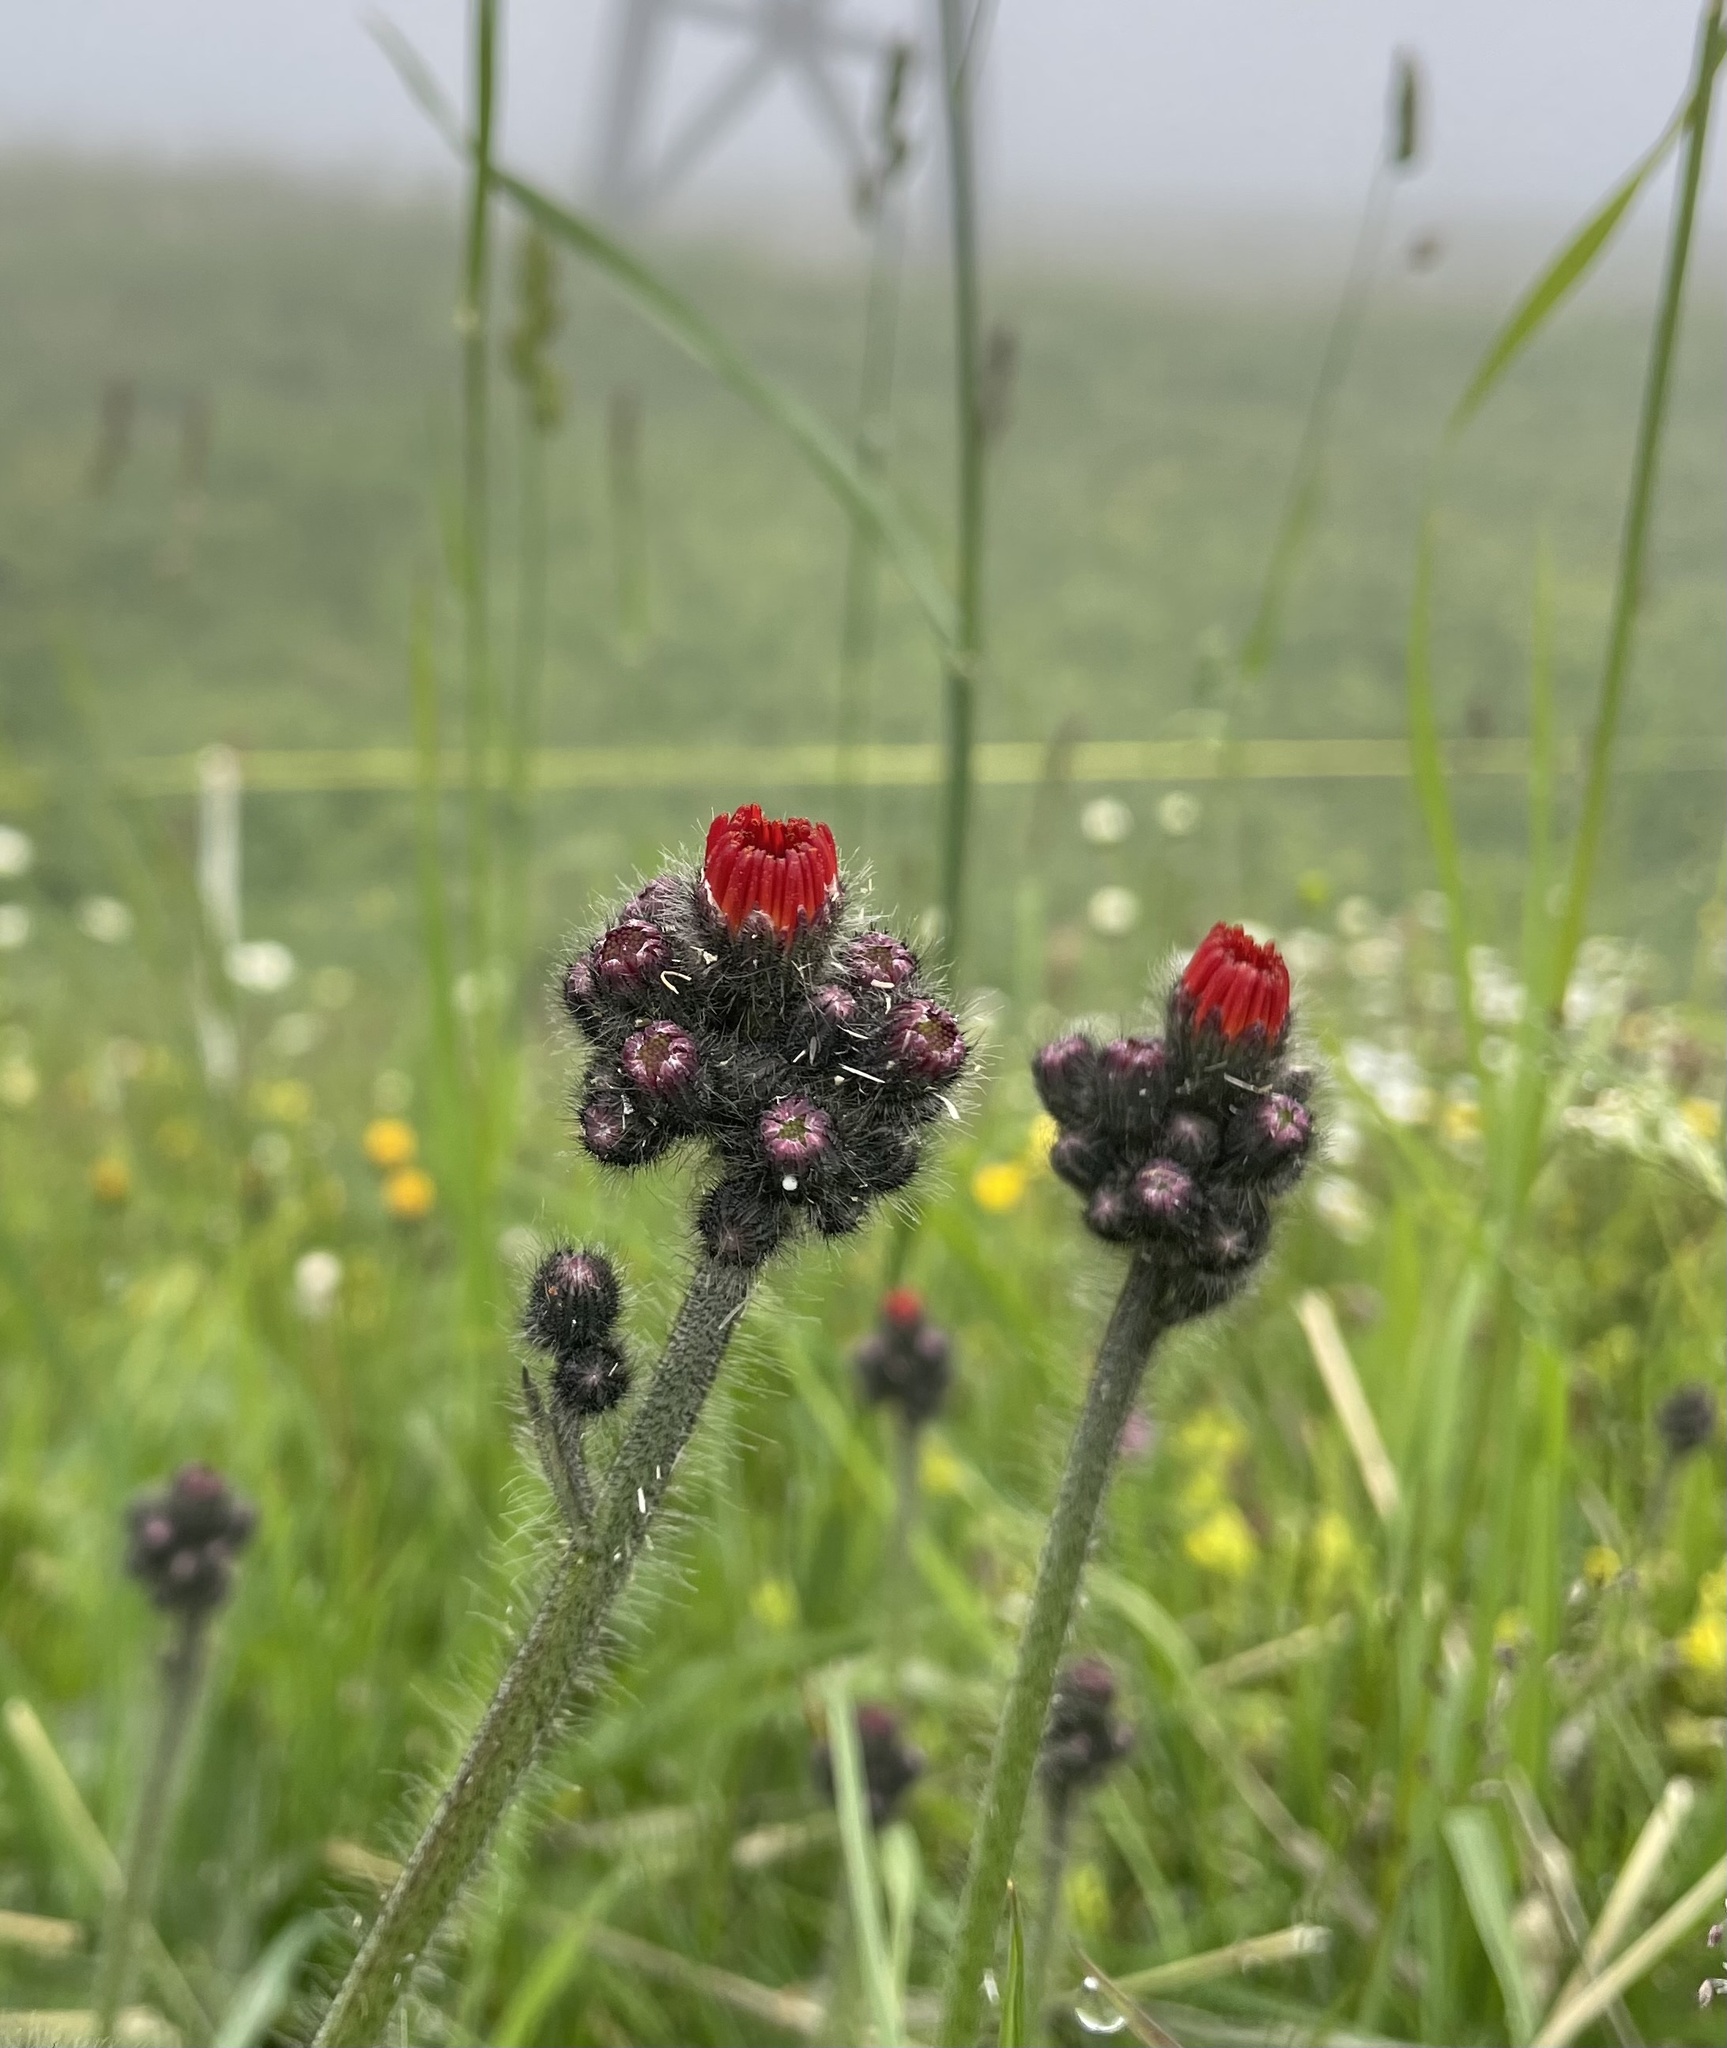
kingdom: Plantae
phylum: Tracheophyta
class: Magnoliopsida
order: Asterales
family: Asteraceae
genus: Pilosella
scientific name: Pilosella aurantiaca
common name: Fox-and-cubs
